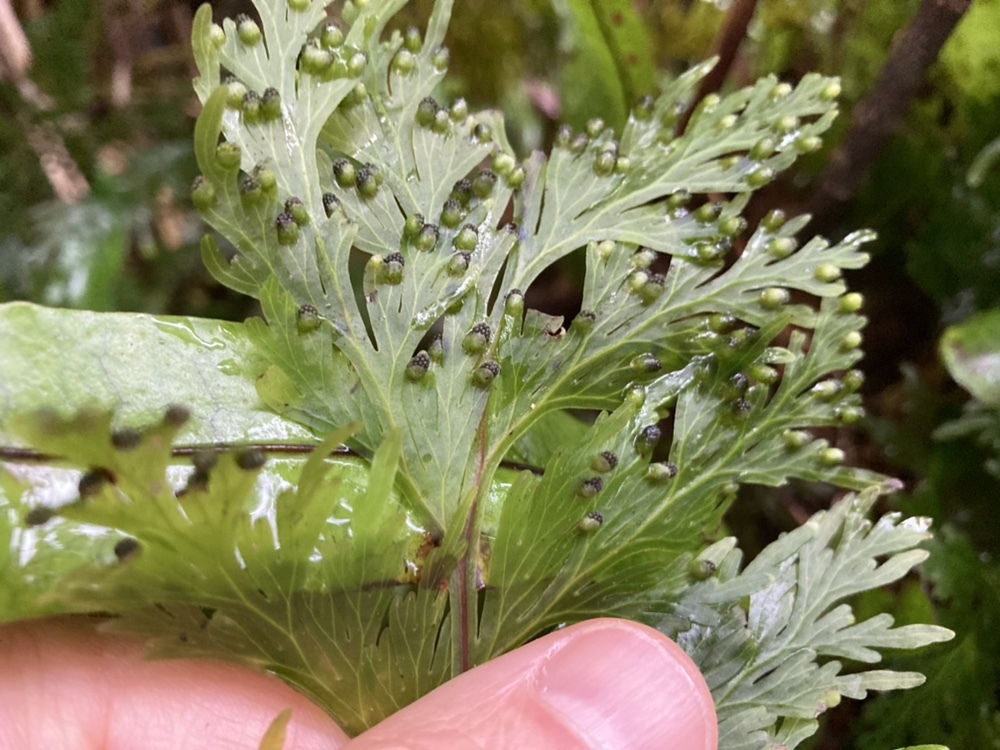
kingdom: Plantae
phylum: Tracheophyta
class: Polypodiopsida
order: Hymenophyllales
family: Hymenophyllaceae
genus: Hymenophyllum
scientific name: Hymenophyllum dilatatum
